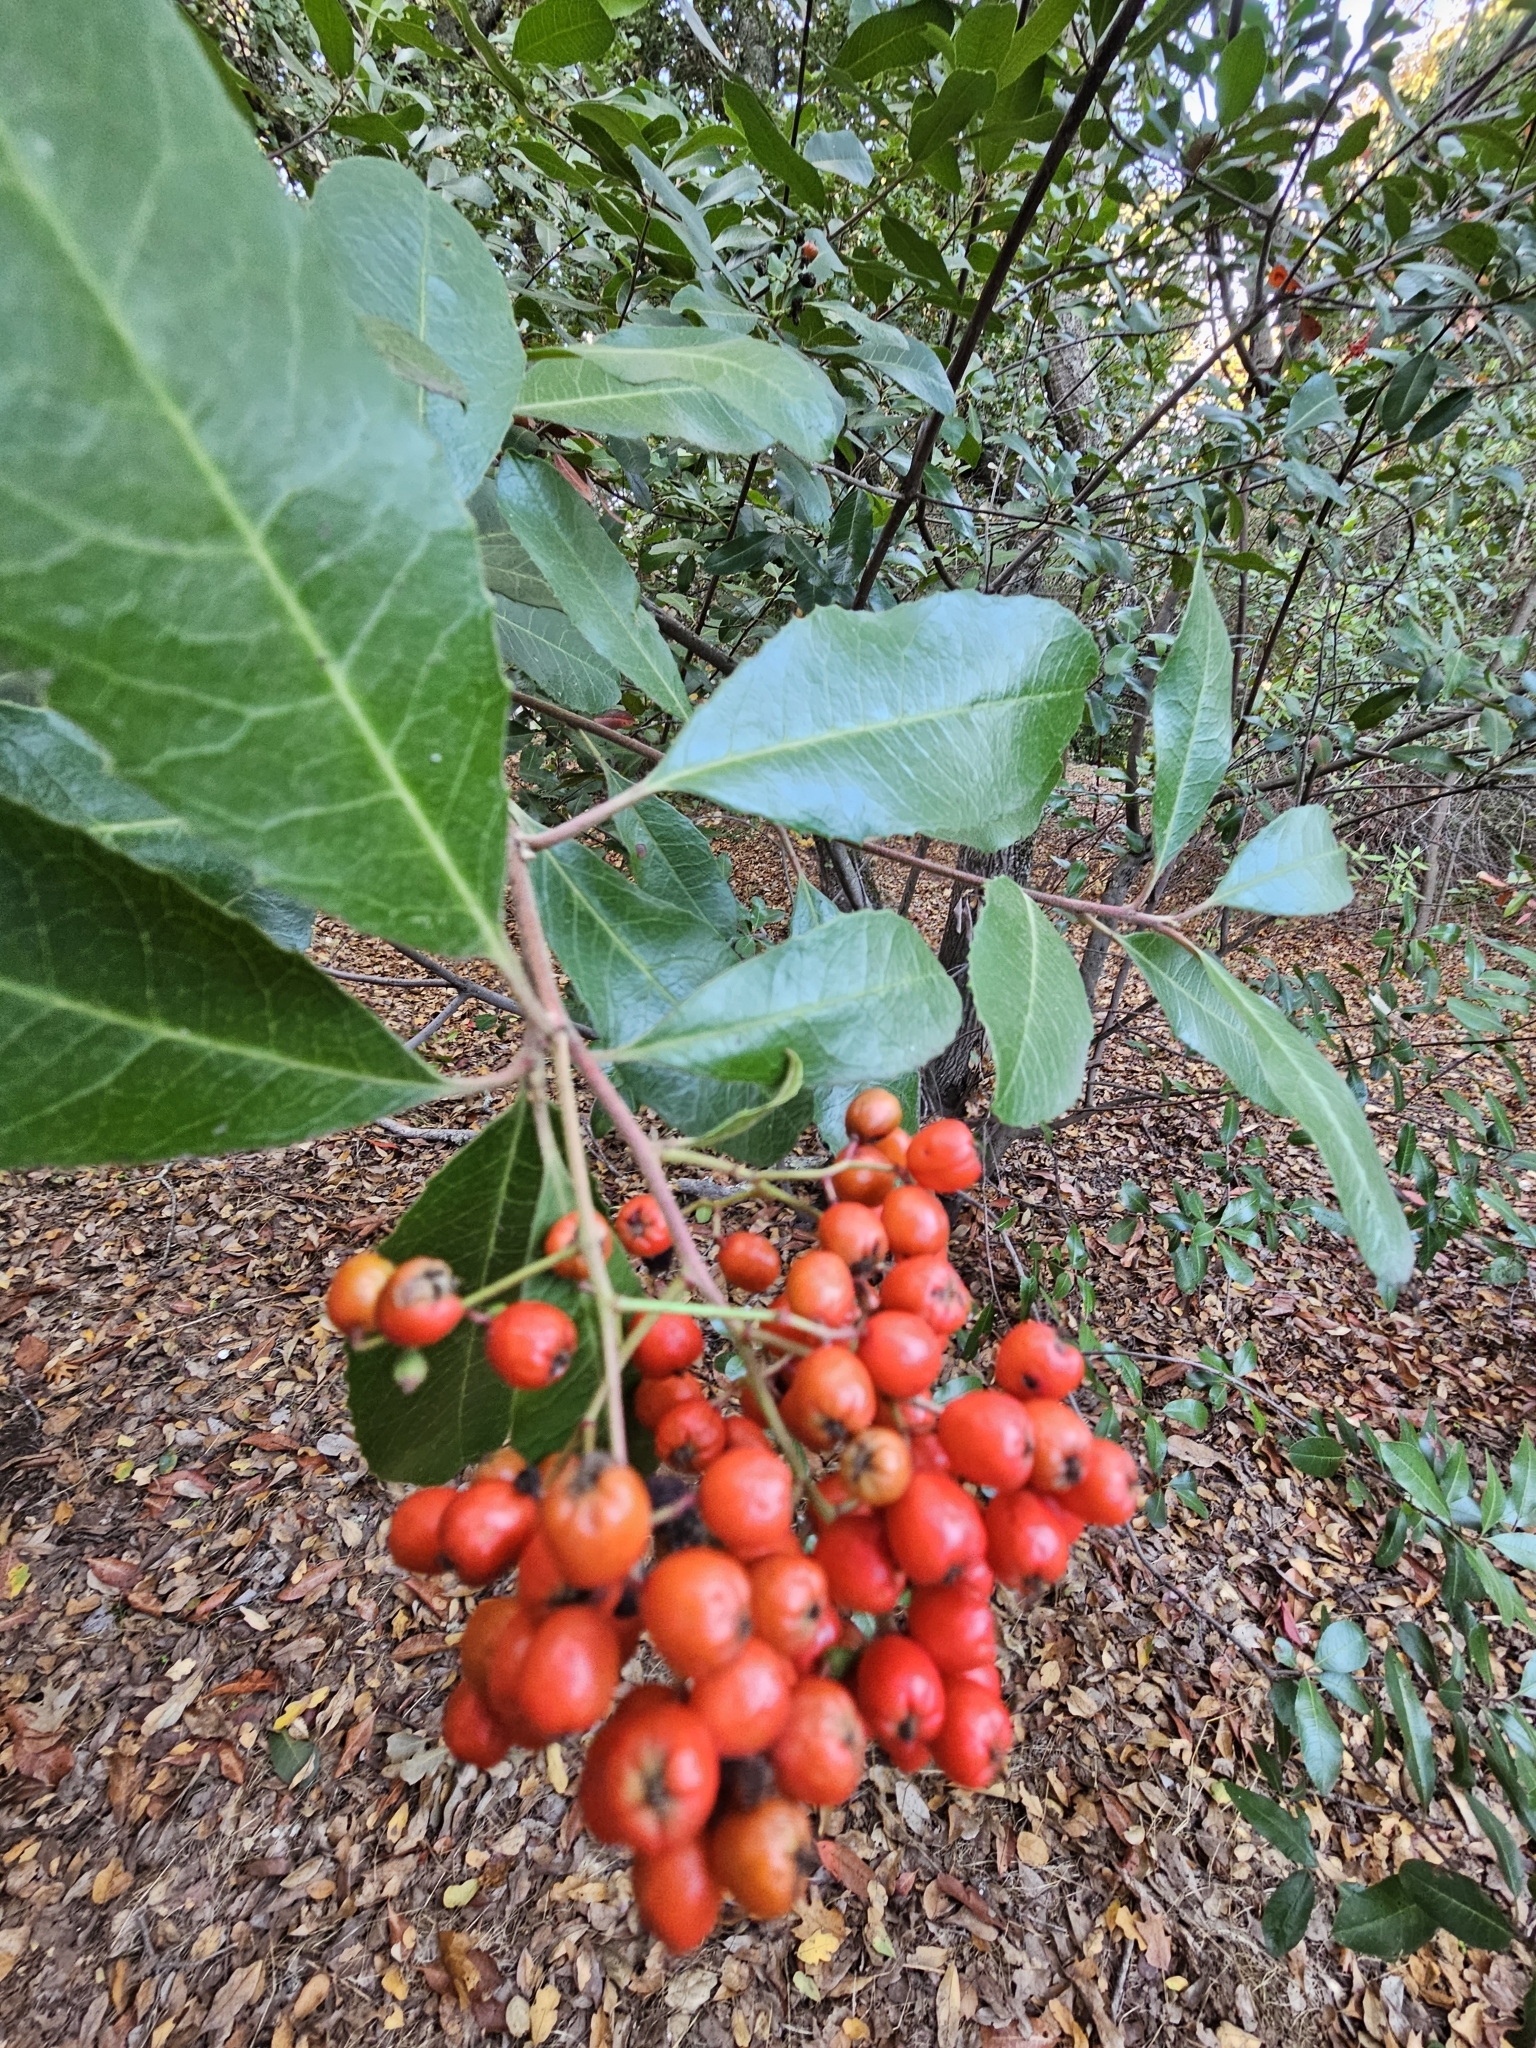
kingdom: Plantae
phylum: Tracheophyta
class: Magnoliopsida
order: Rosales
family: Rosaceae
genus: Heteromeles
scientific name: Heteromeles arbutifolia
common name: California-holly
